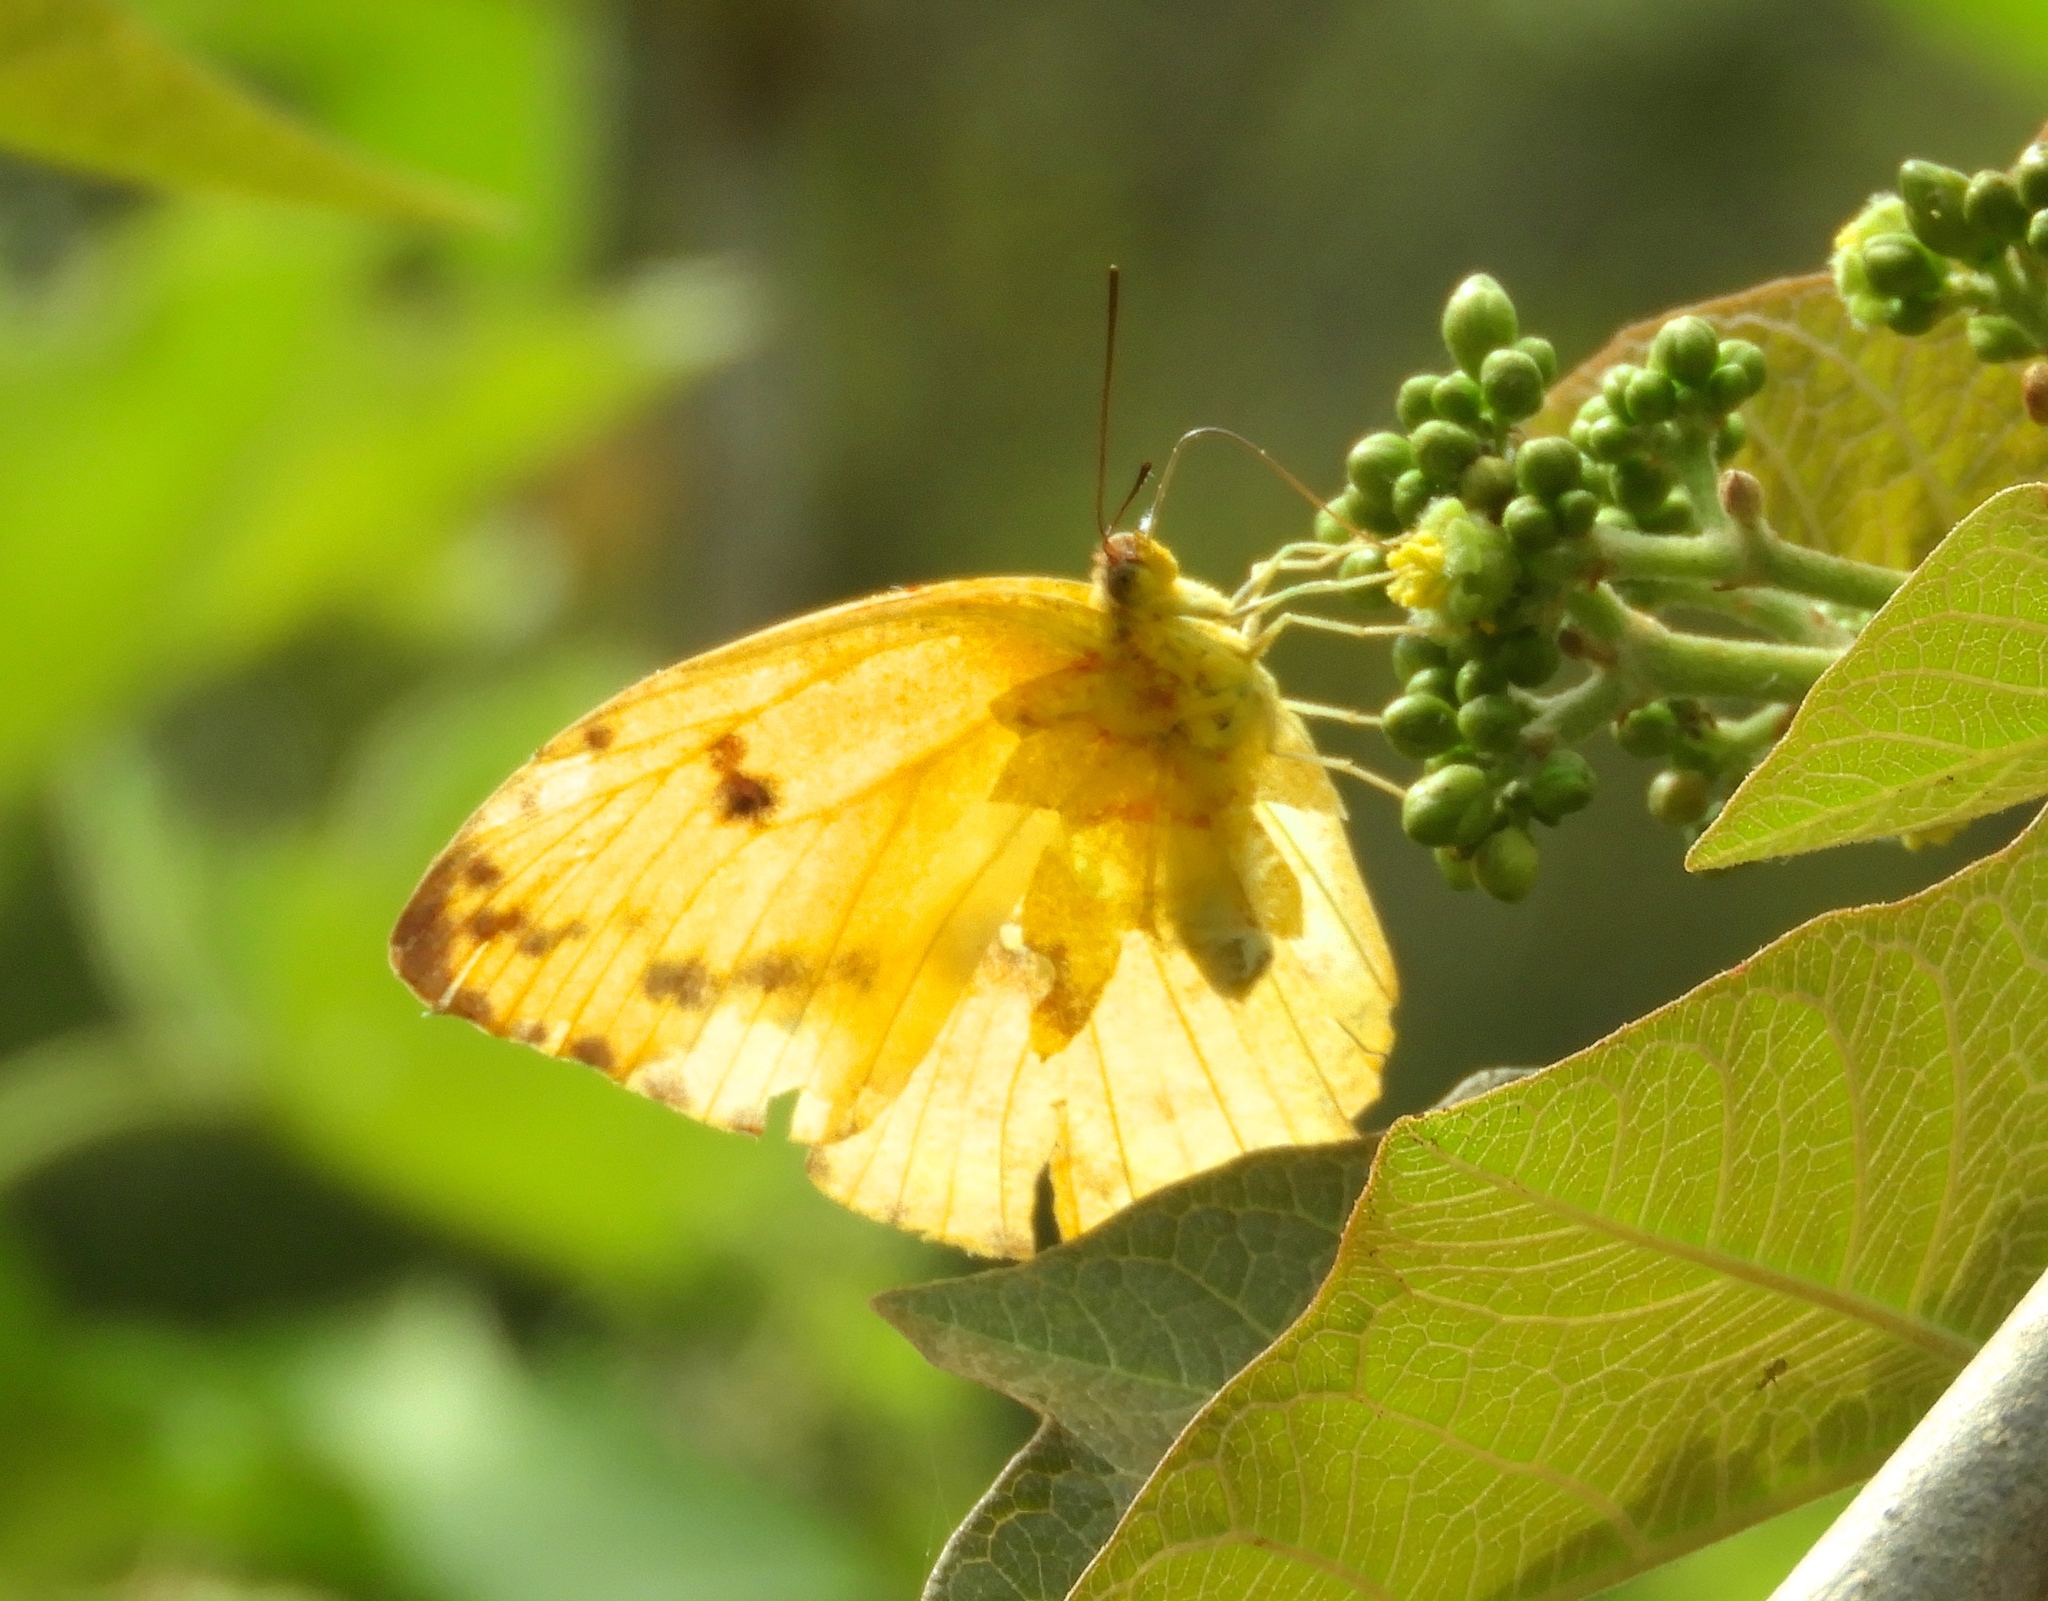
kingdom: Animalia
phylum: Arthropoda
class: Insecta
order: Lepidoptera
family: Pieridae
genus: Phoebis
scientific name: Phoebis argante
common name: Apricot sulphur
